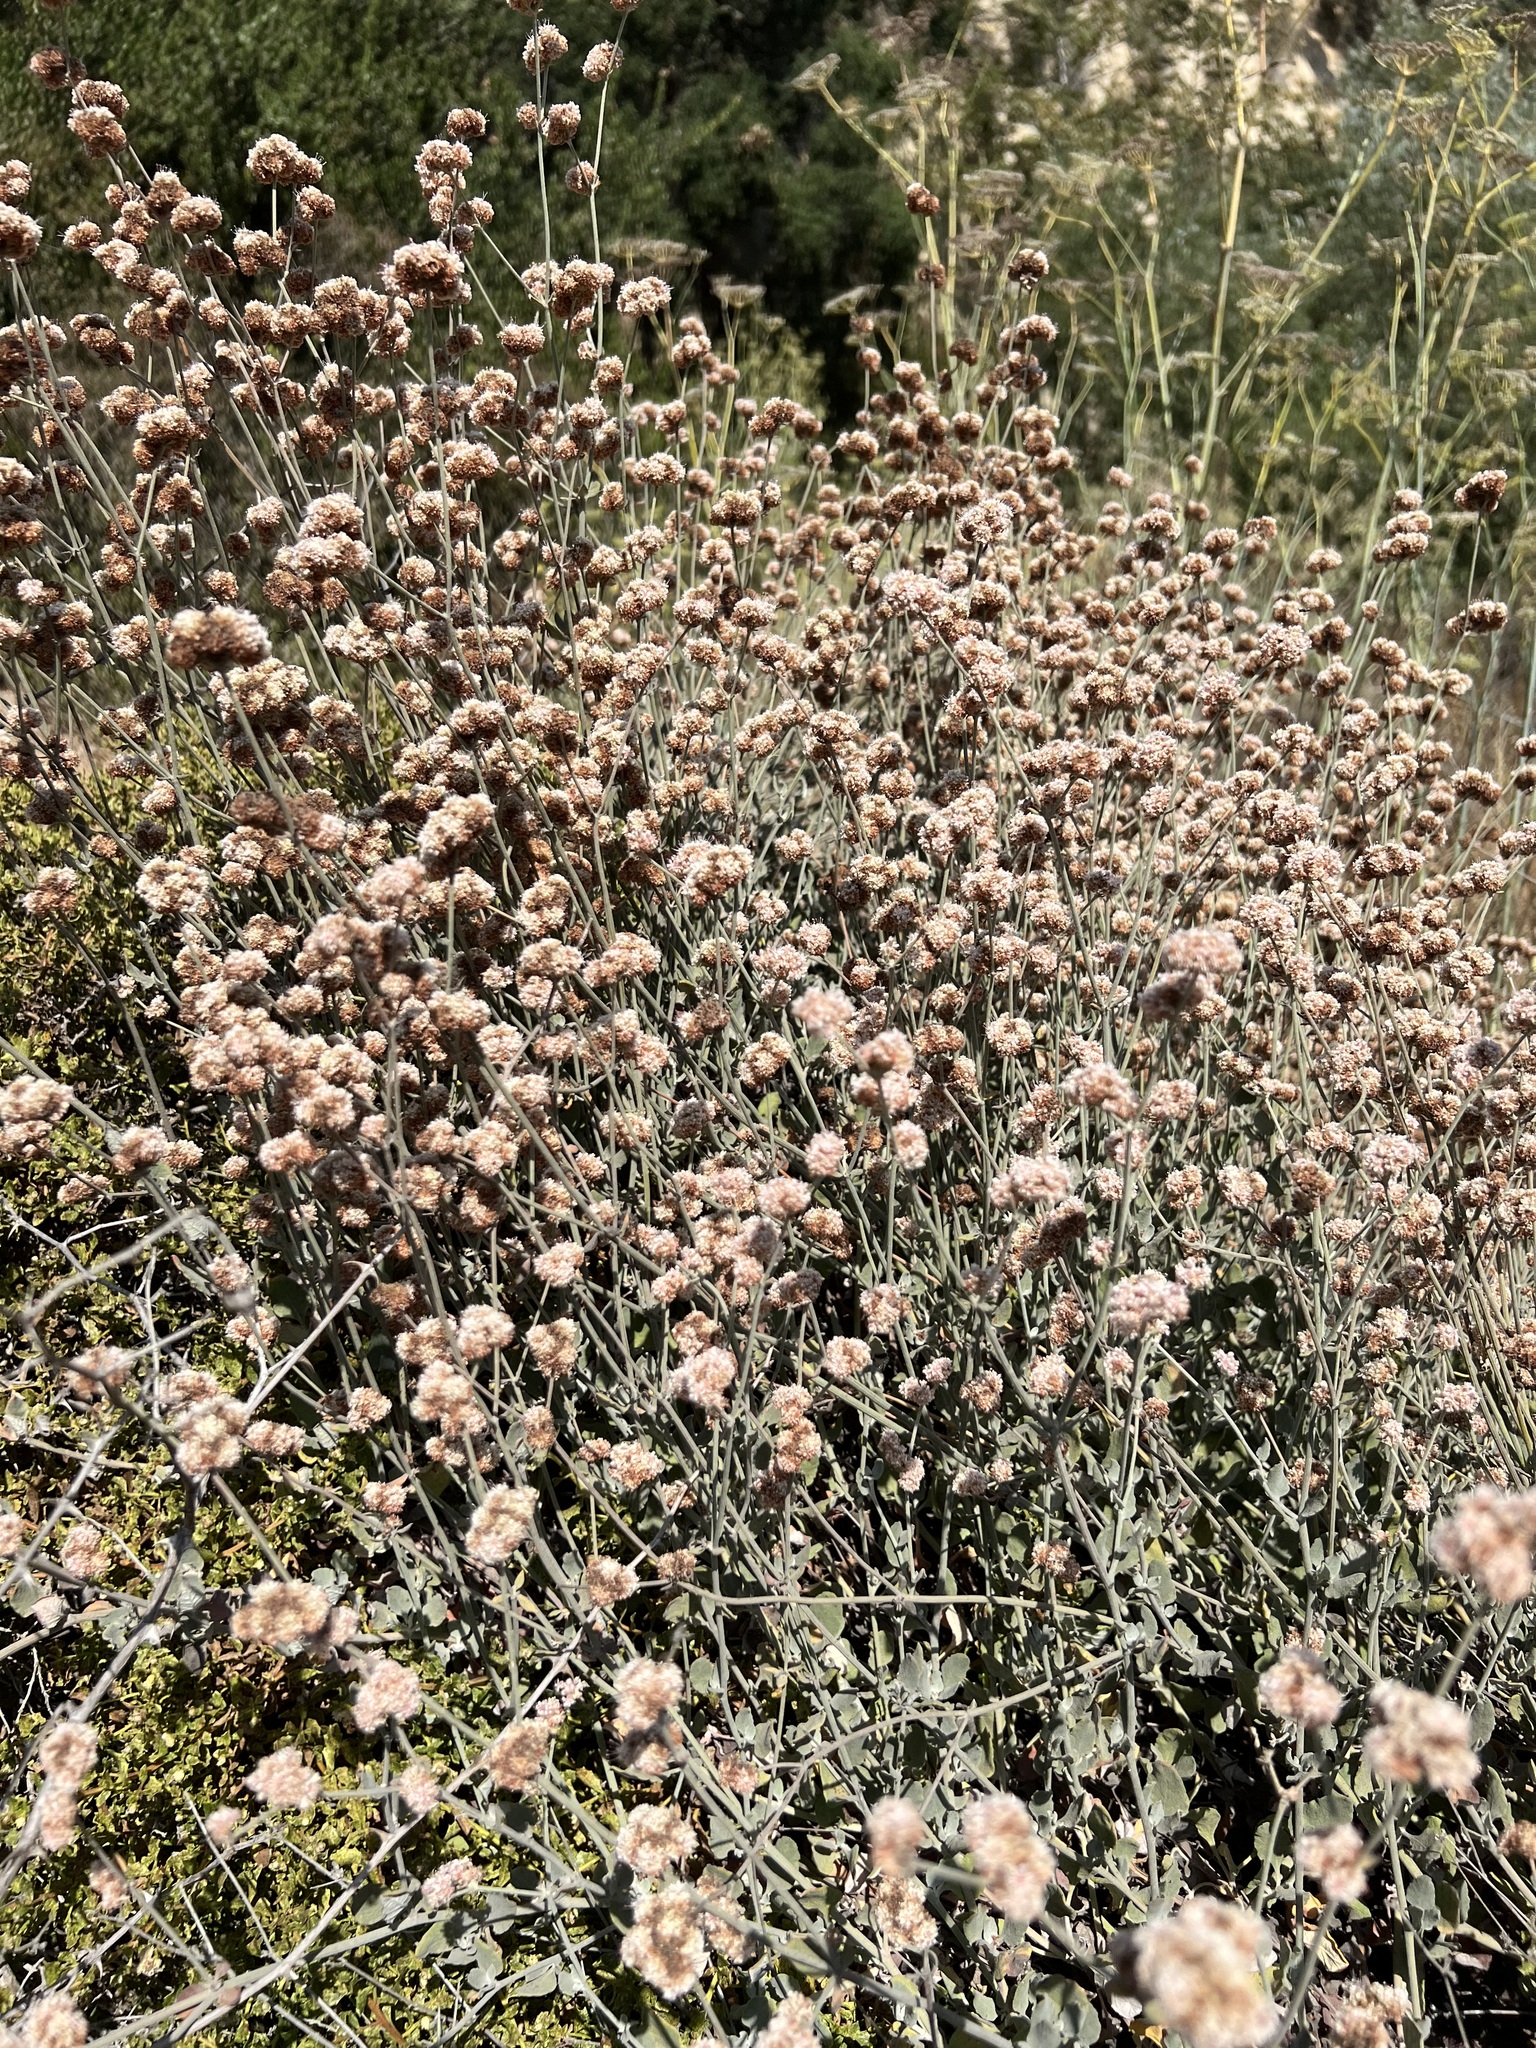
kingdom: Plantae
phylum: Tracheophyta
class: Magnoliopsida
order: Caryophyllales
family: Polygonaceae
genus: Eriogonum
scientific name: Eriogonum cinereum
